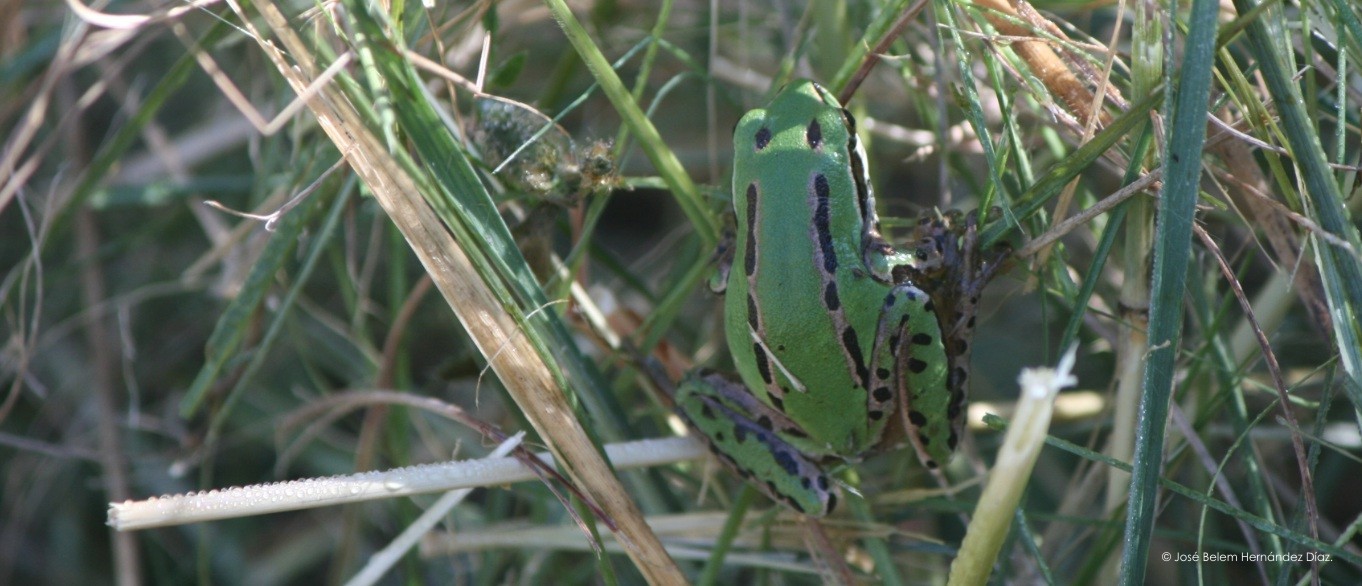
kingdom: Animalia
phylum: Chordata
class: Amphibia
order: Anura
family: Hylidae
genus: Dryophytes
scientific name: Dryophytes eximius
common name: Mountain treefrog
